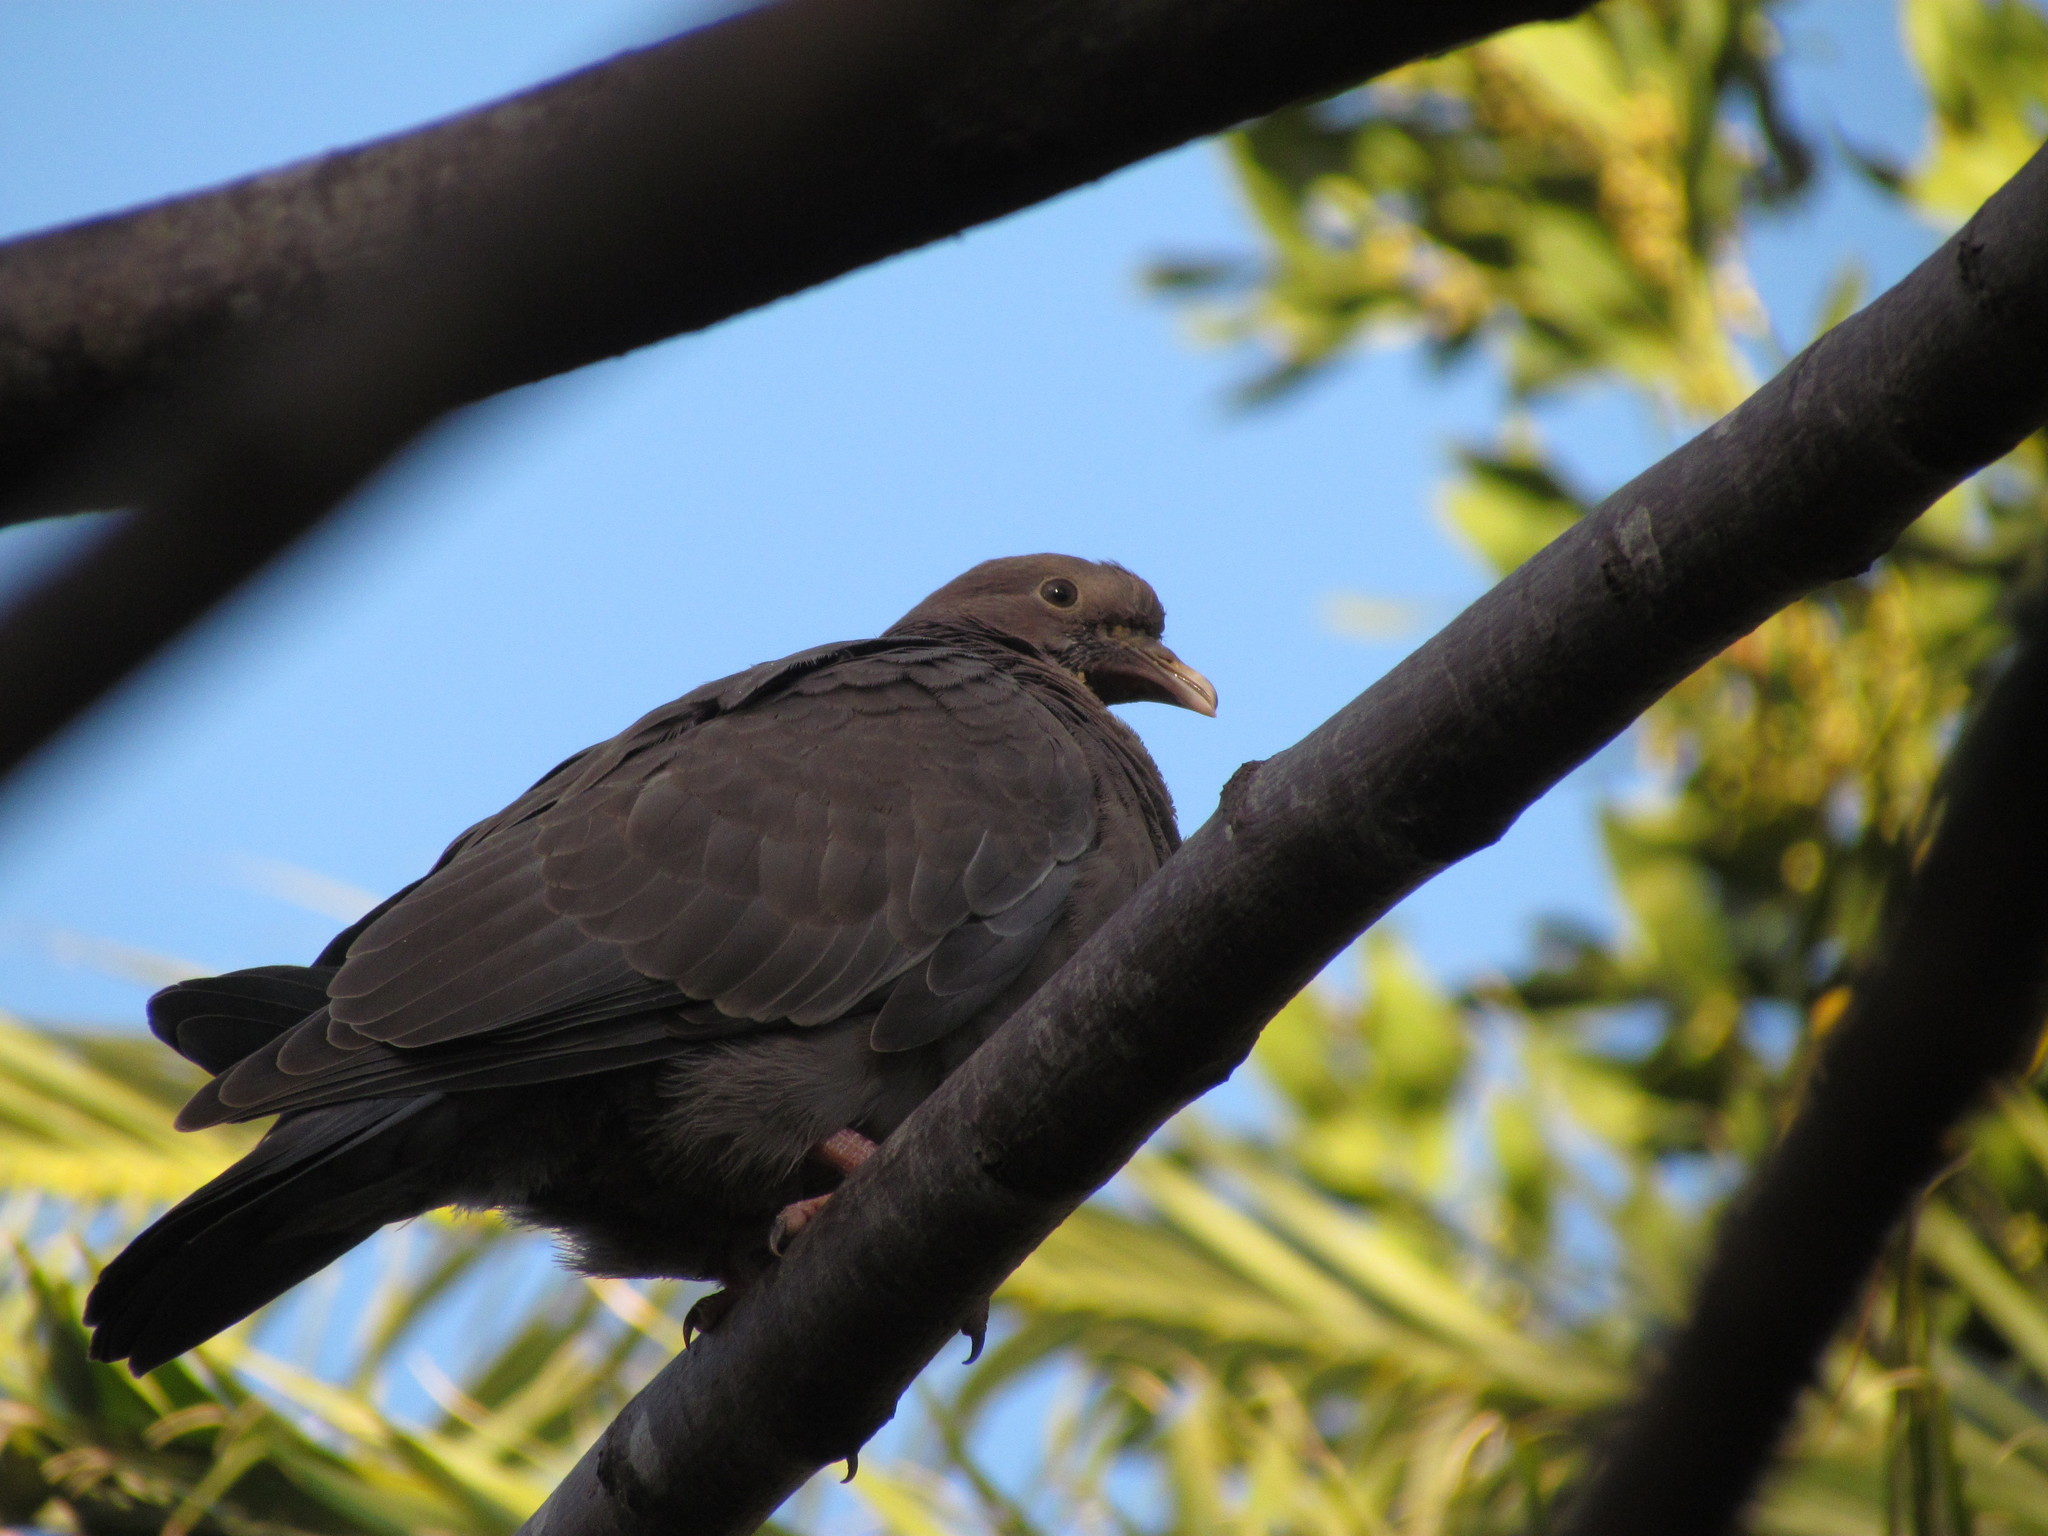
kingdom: Animalia
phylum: Chordata
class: Aves
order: Columbiformes
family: Columbidae
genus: Patagioenas
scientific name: Patagioenas picazuro
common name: Picazuro pigeon
